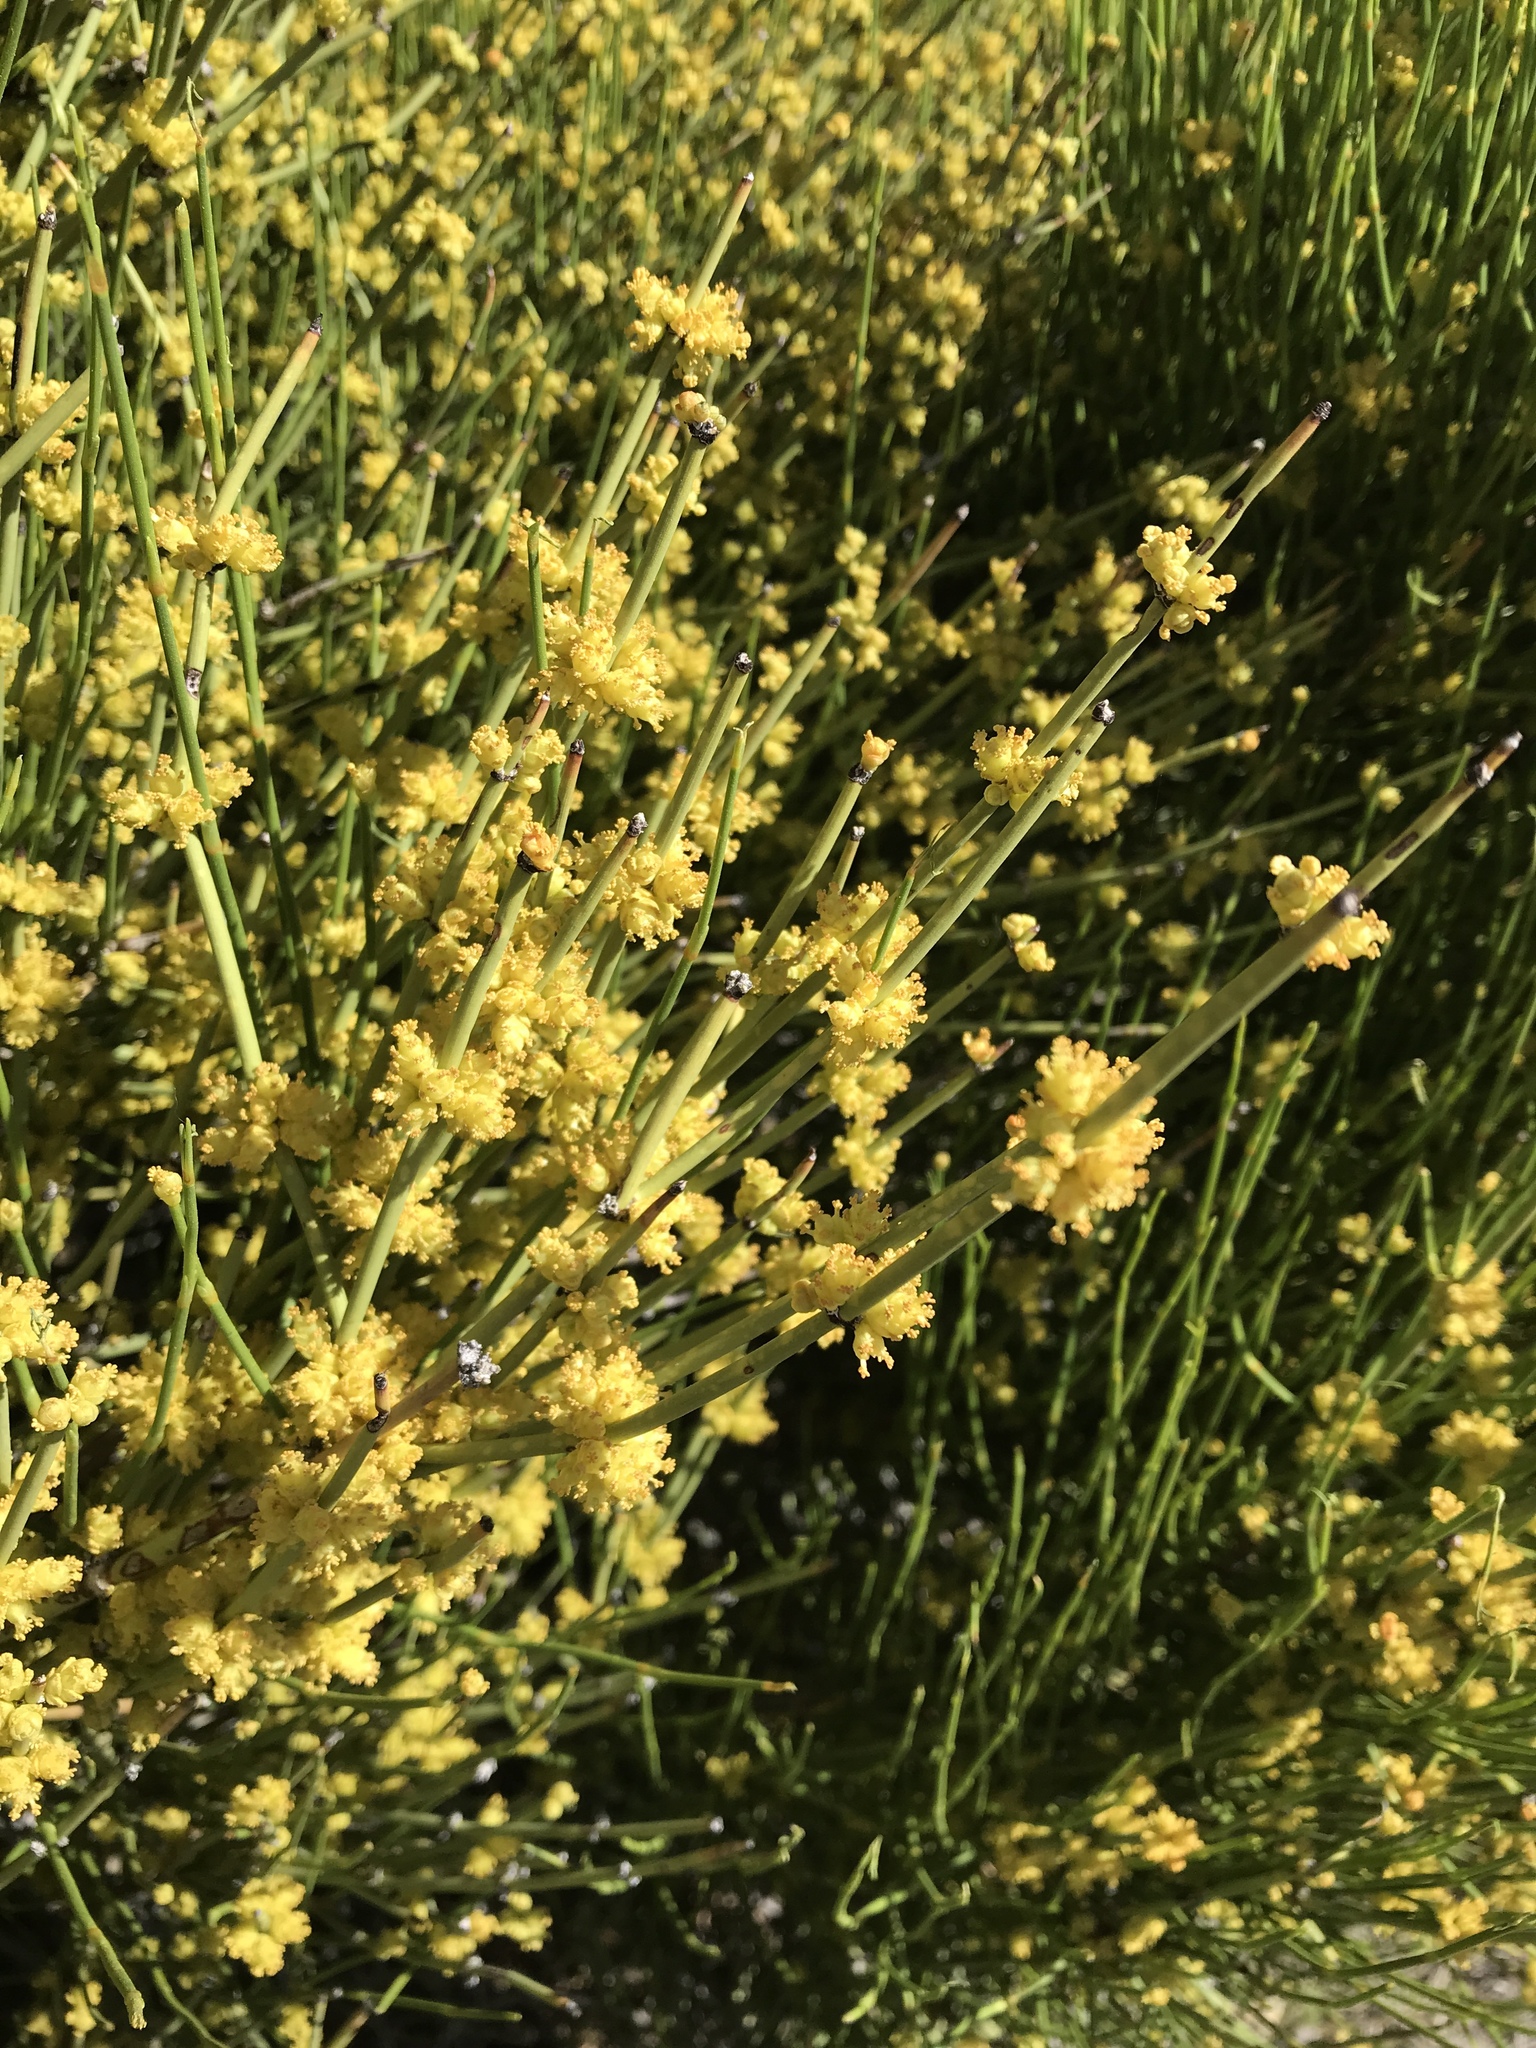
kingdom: Plantae
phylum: Tracheophyta
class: Gnetopsida
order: Ephedrales
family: Ephedraceae
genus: Ephedra
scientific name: Ephedra viridis
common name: Green ephedra
